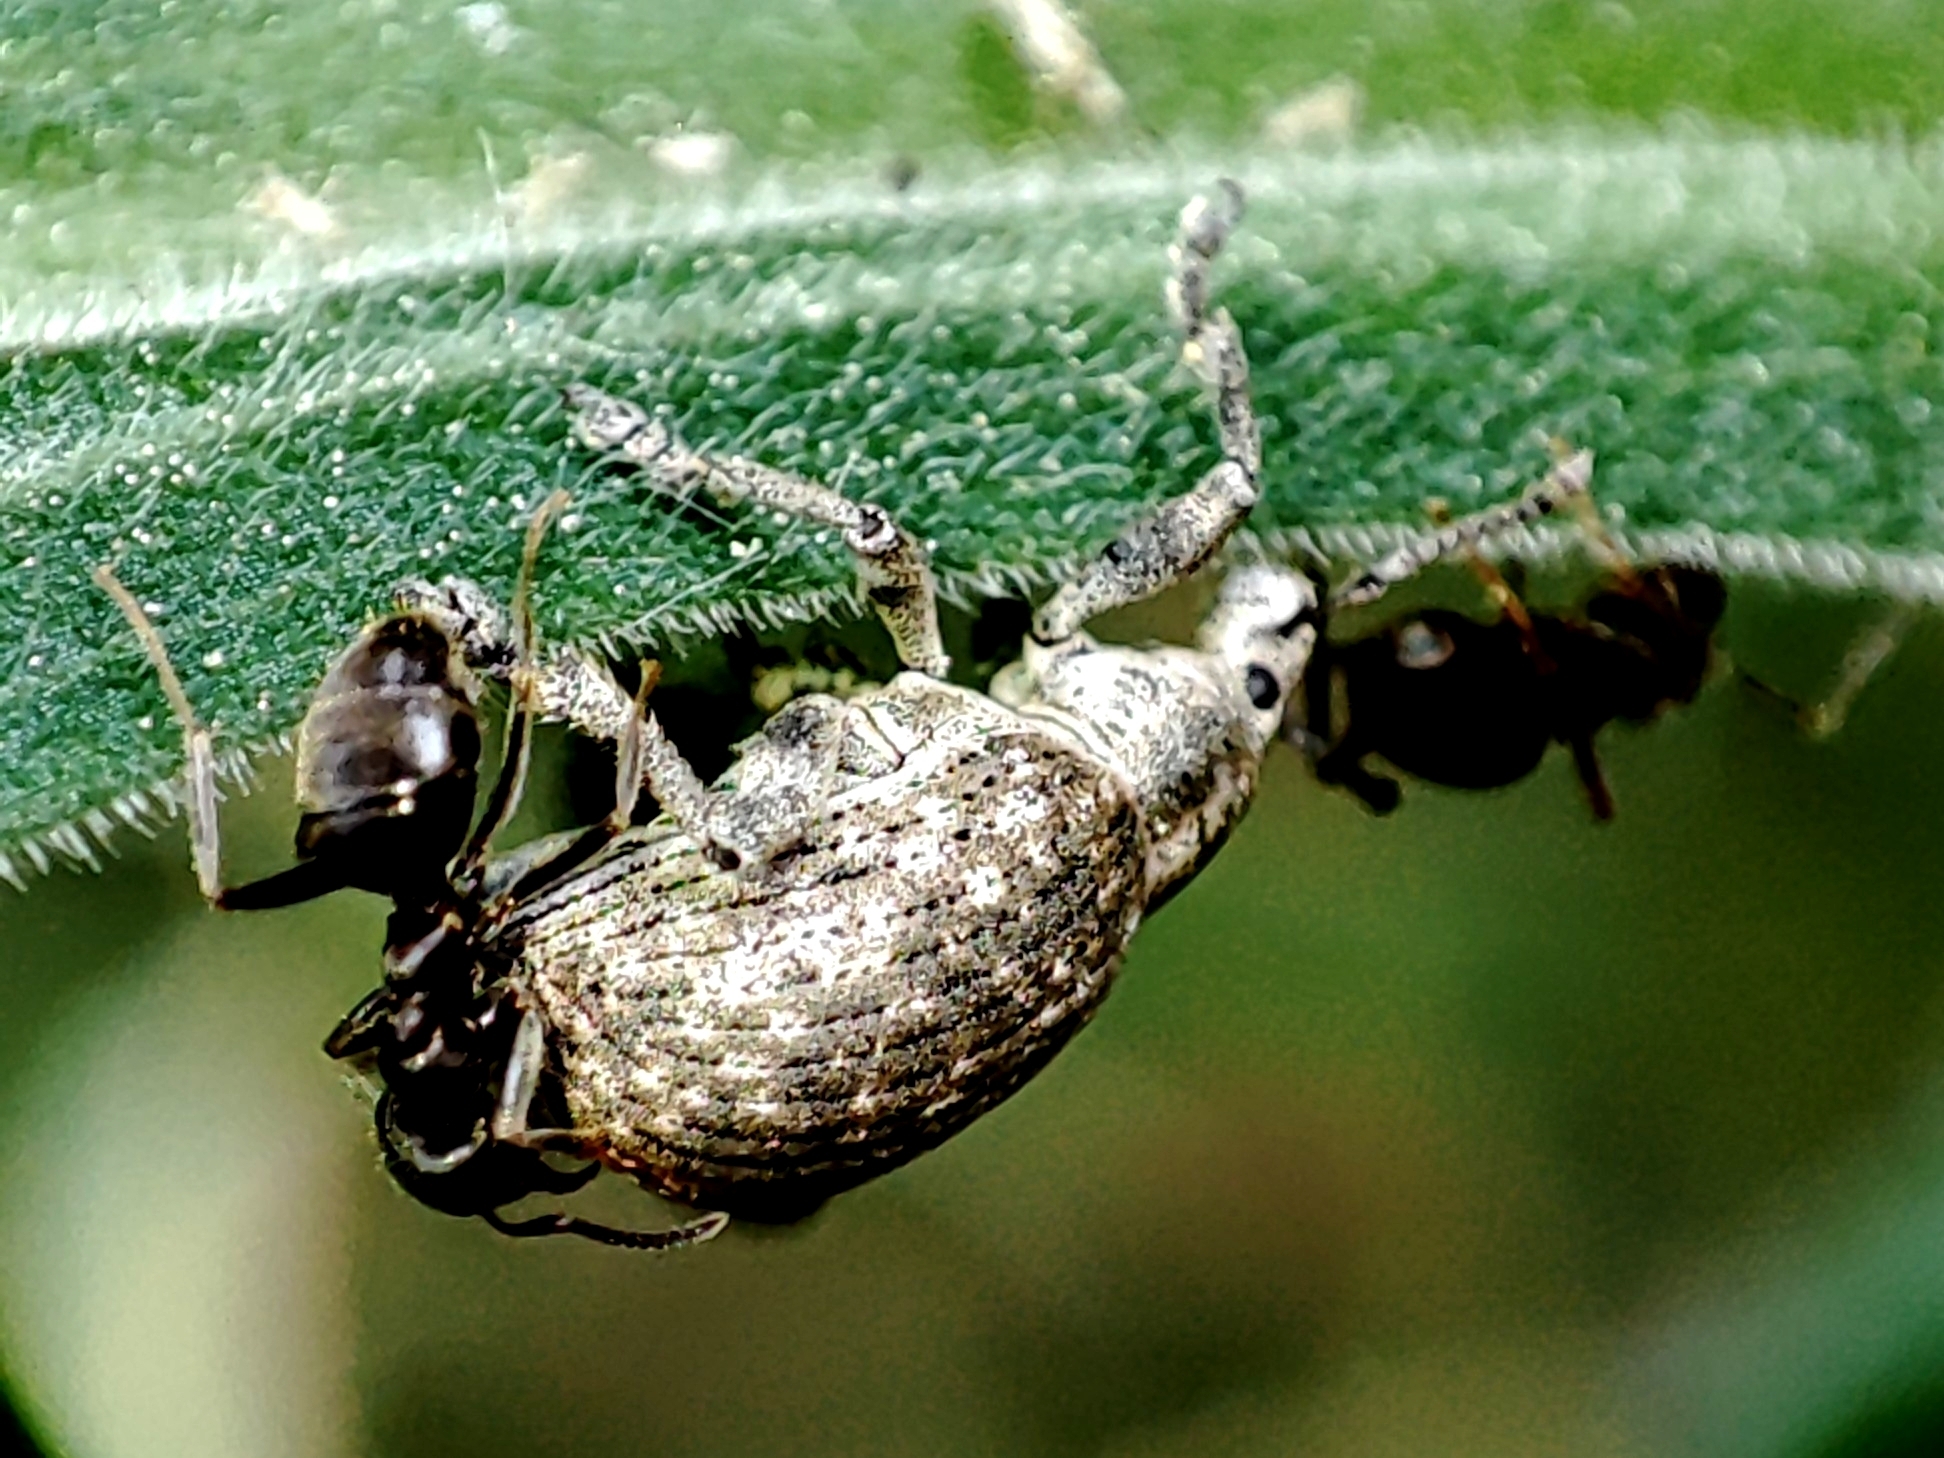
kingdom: Animalia
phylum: Arthropoda
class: Insecta
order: Coleoptera
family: Curculionidae
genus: Attactagenus
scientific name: Attactagenus albinus
